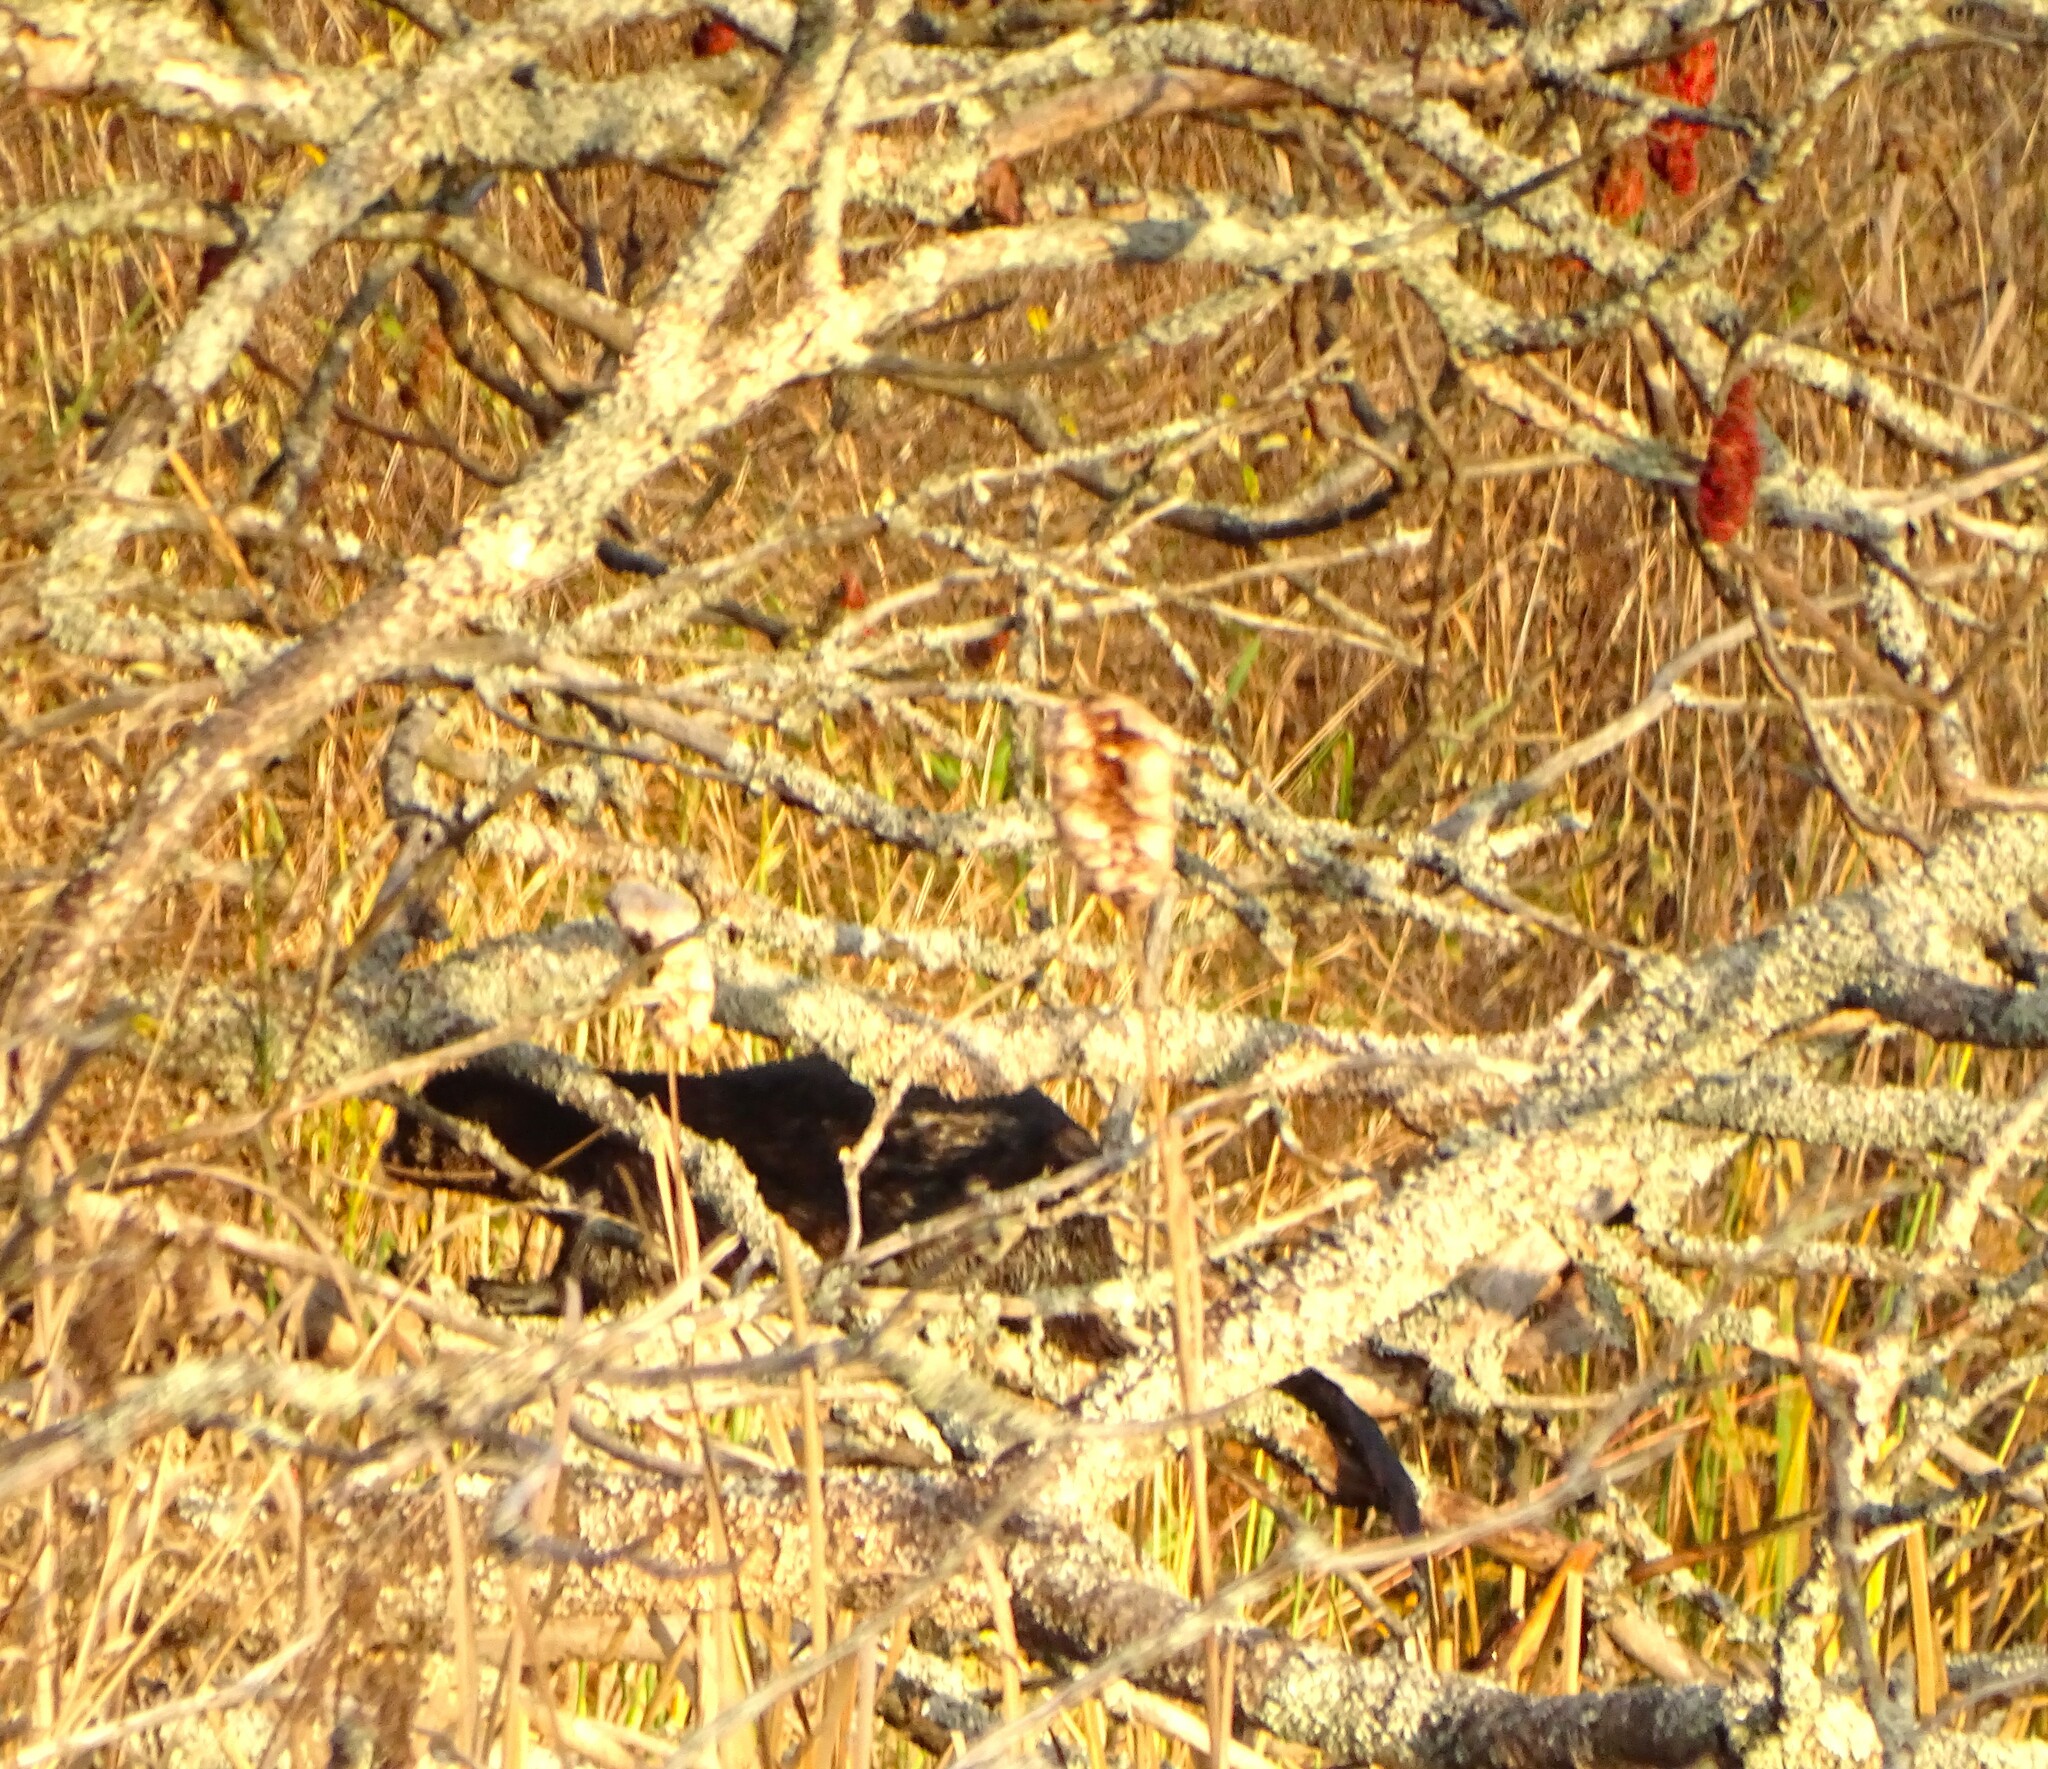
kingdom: Animalia
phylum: Chordata
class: Mammalia
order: Carnivora
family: Mustelidae
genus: Lontra
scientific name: Lontra canadensis
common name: North american river otter
